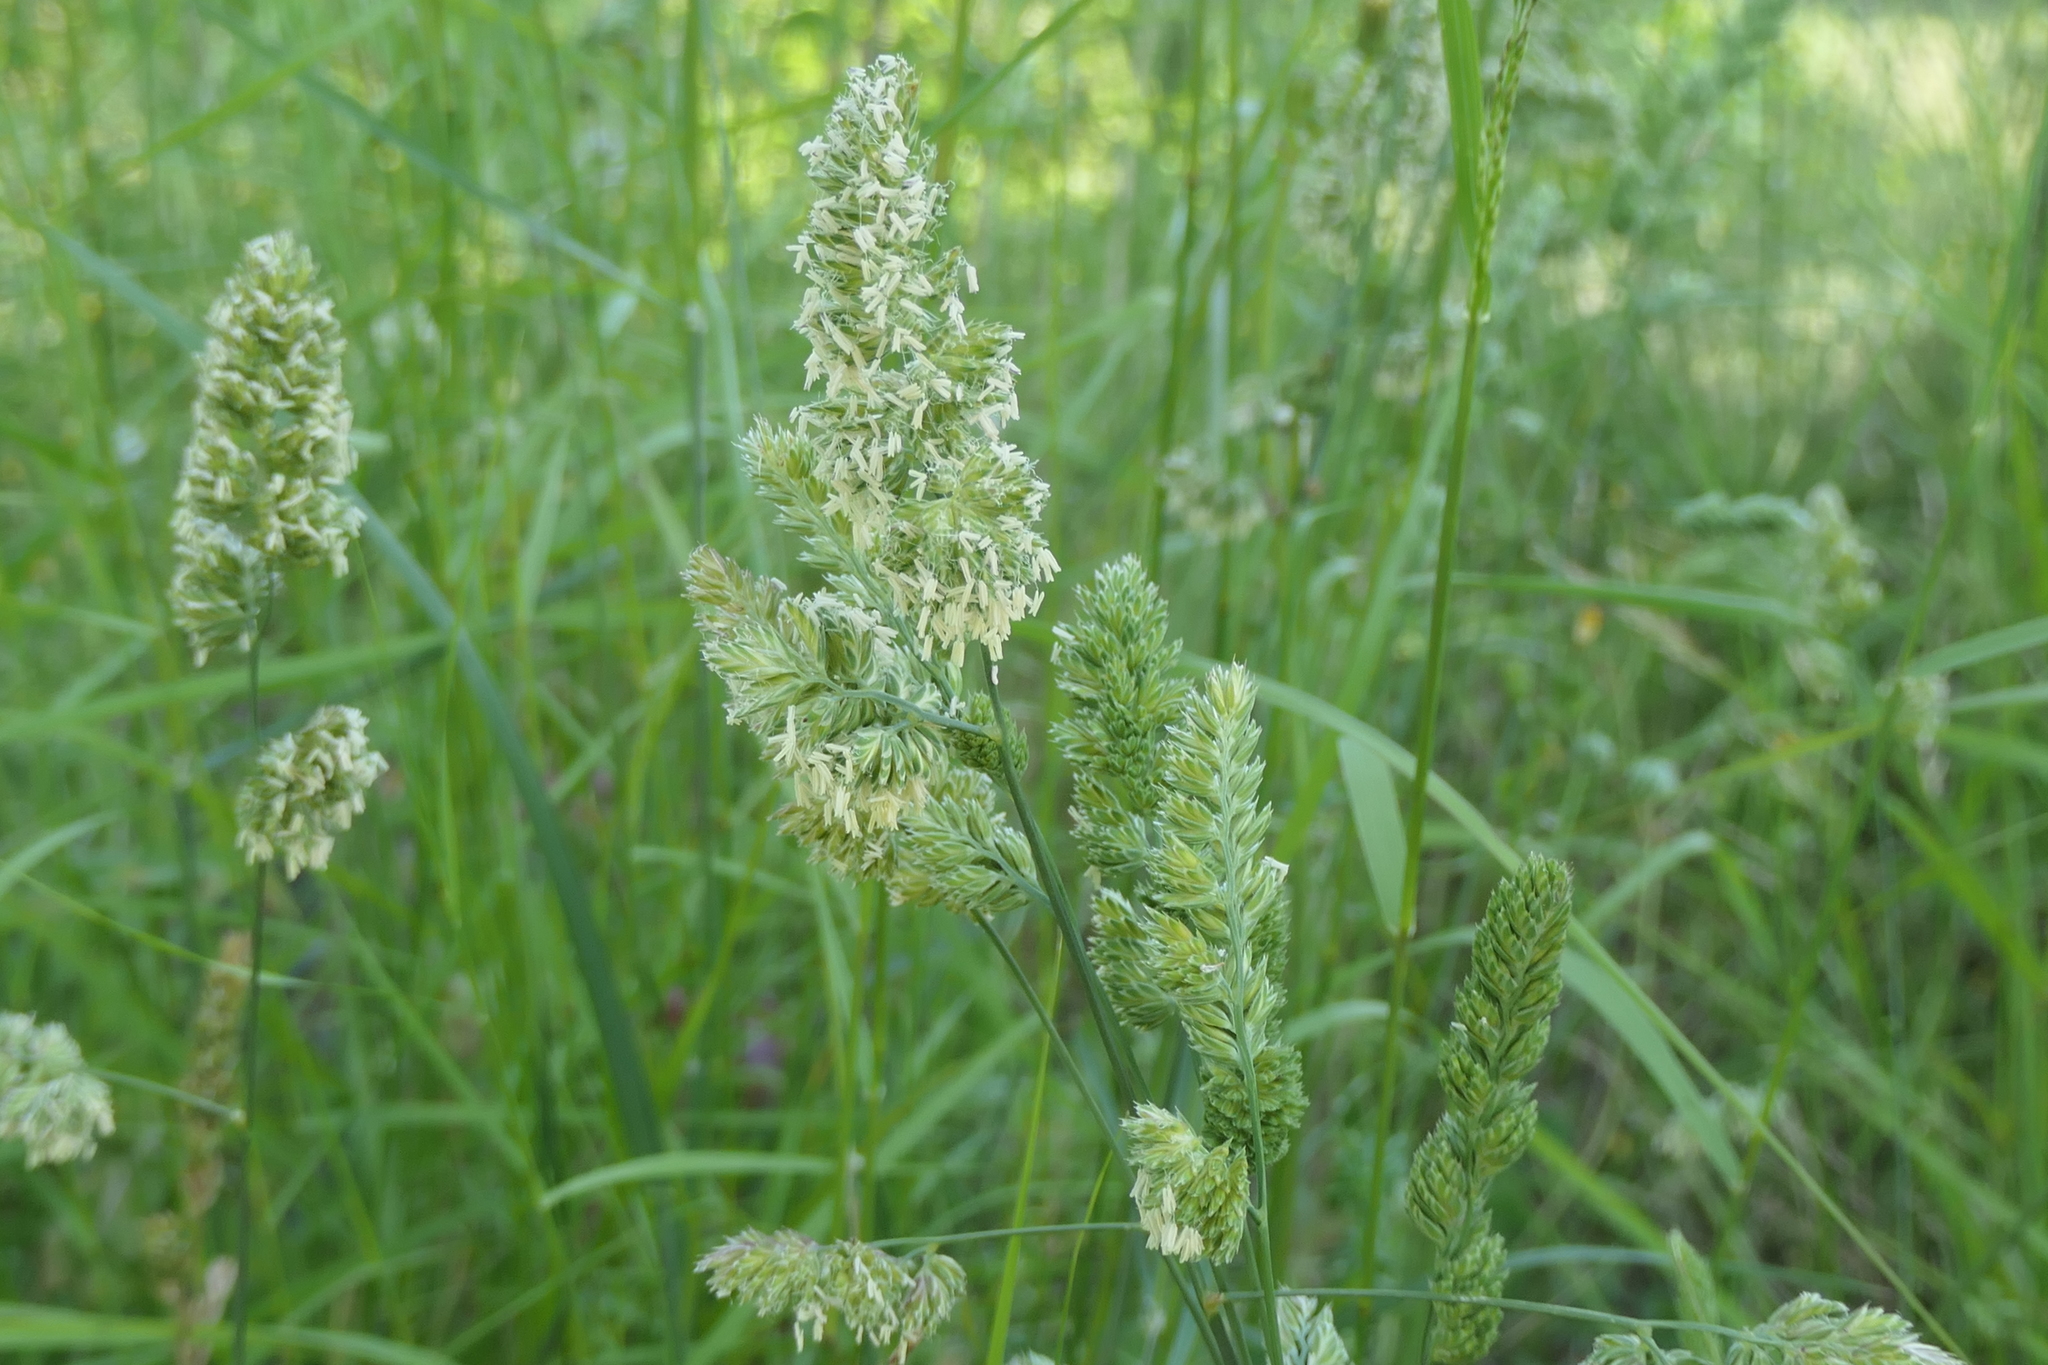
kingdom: Plantae
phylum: Tracheophyta
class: Liliopsida
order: Poales
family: Poaceae
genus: Dactylis
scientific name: Dactylis glomerata
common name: Orchardgrass
